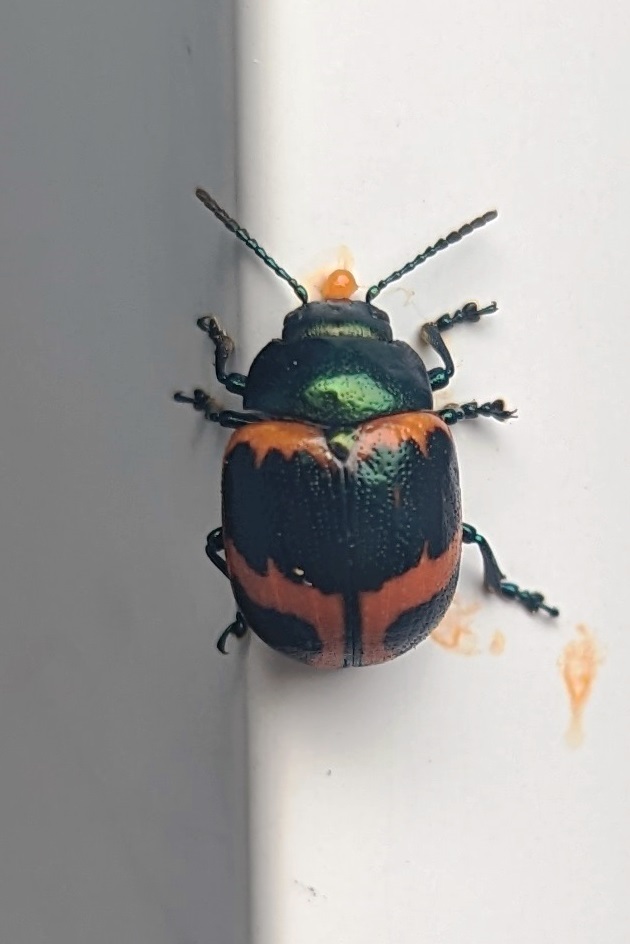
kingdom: Animalia
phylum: Arthropoda
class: Insecta
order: Coleoptera
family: Chrysomelidae
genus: Labidomera
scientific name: Labidomera clivicollis
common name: Swamp milkweed leaf beetle
